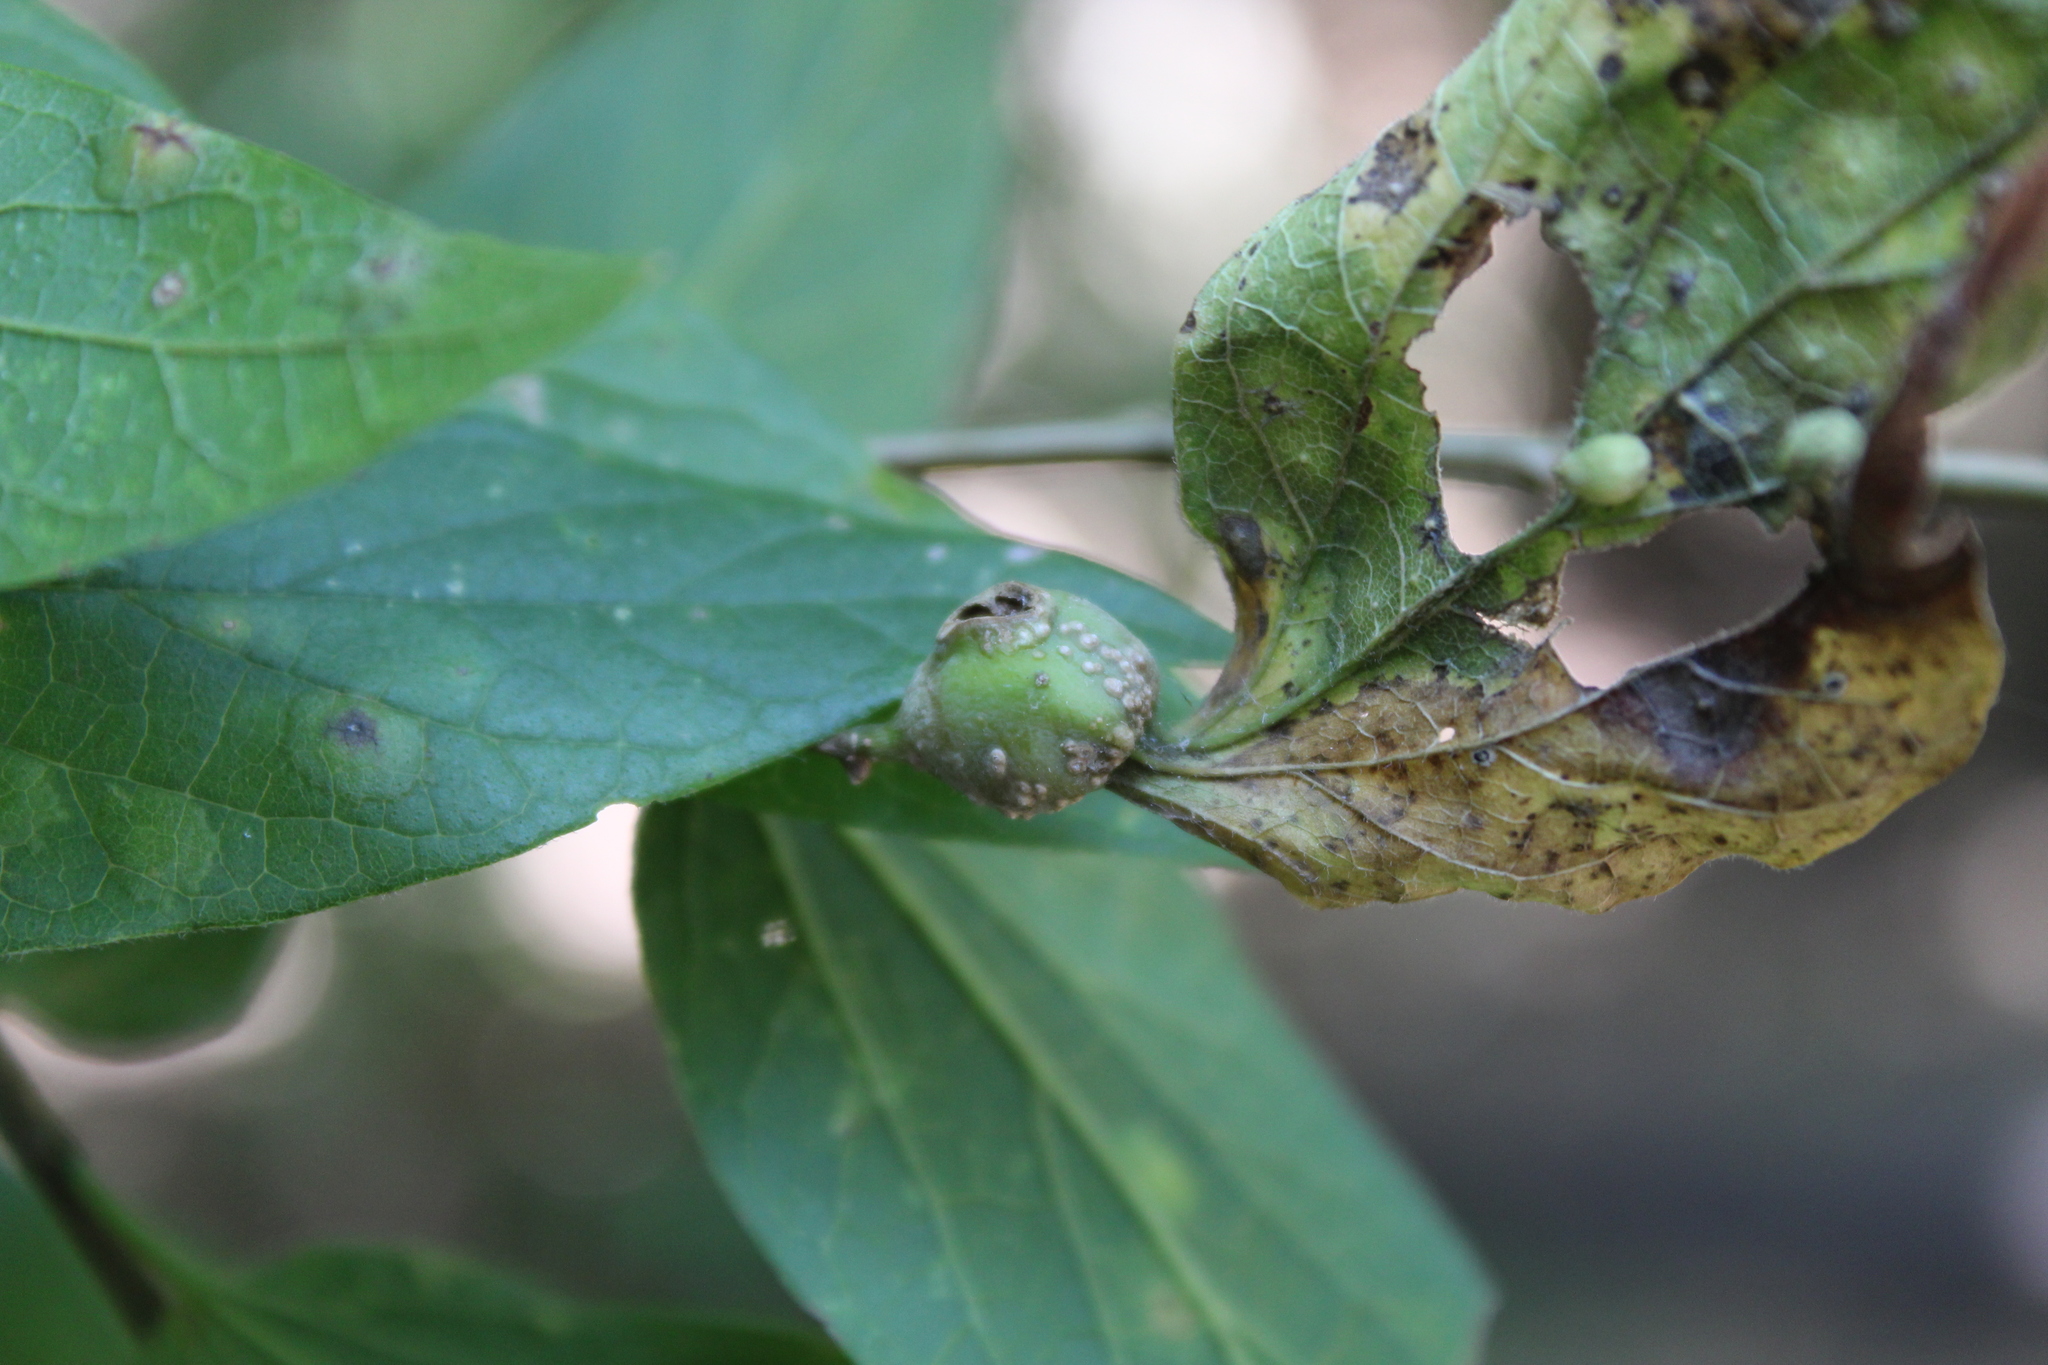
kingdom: Animalia
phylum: Arthropoda
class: Insecta
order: Hemiptera
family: Aphalaridae
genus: Pachypsylla
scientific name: Pachypsylla venusta
